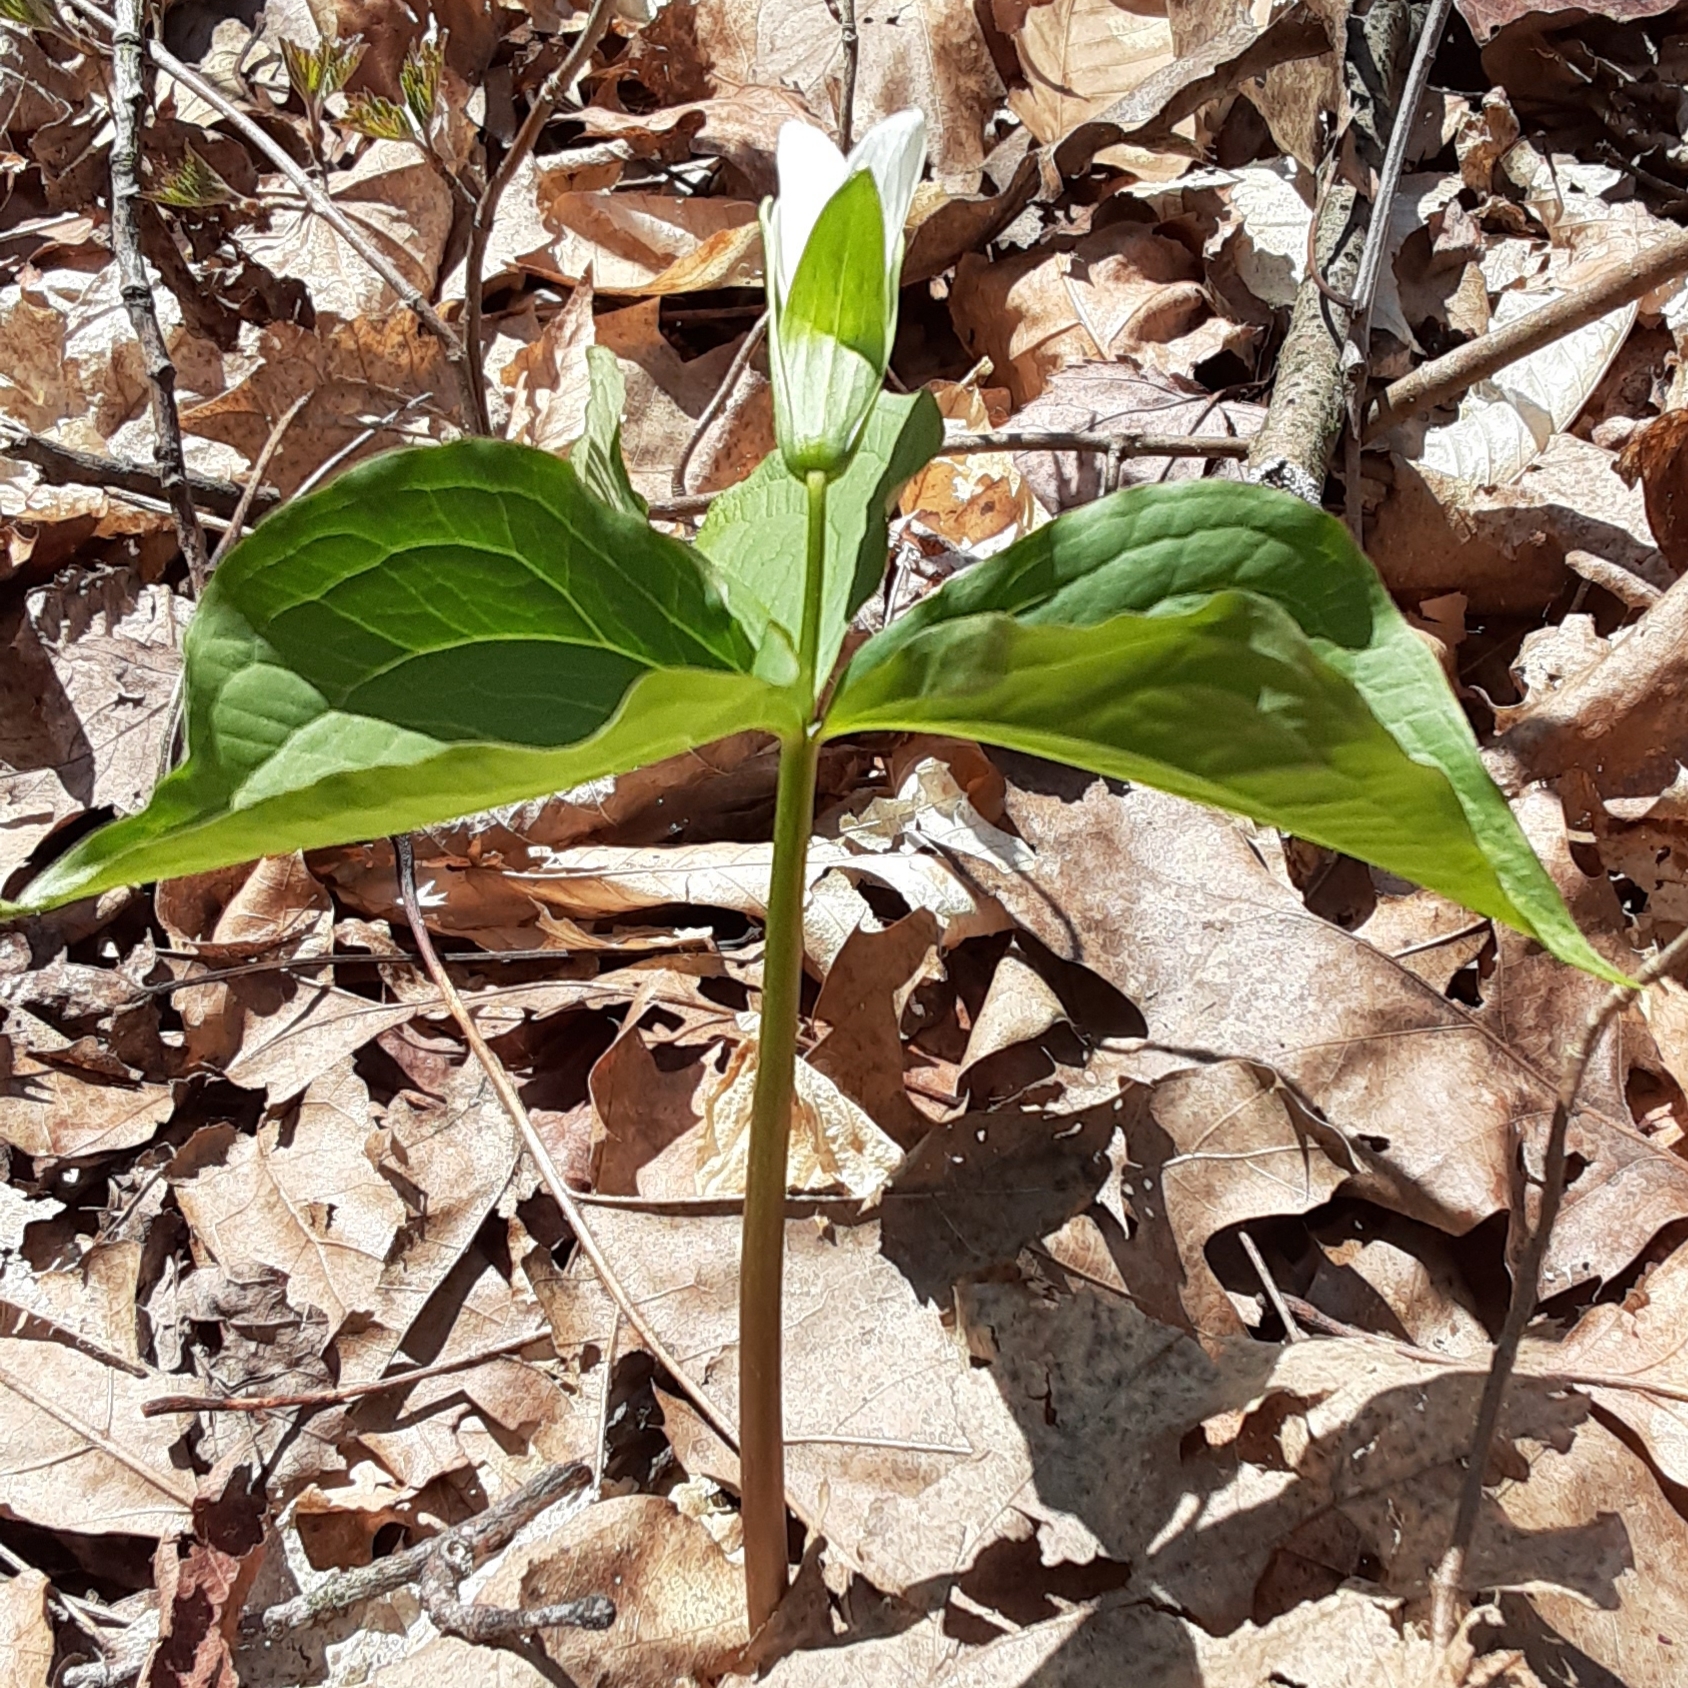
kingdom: Plantae
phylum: Tracheophyta
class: Liliopsida
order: Liliales
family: Melanthiaceae
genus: Trillium
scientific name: Trillium grandiflorum
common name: Great white trillium
